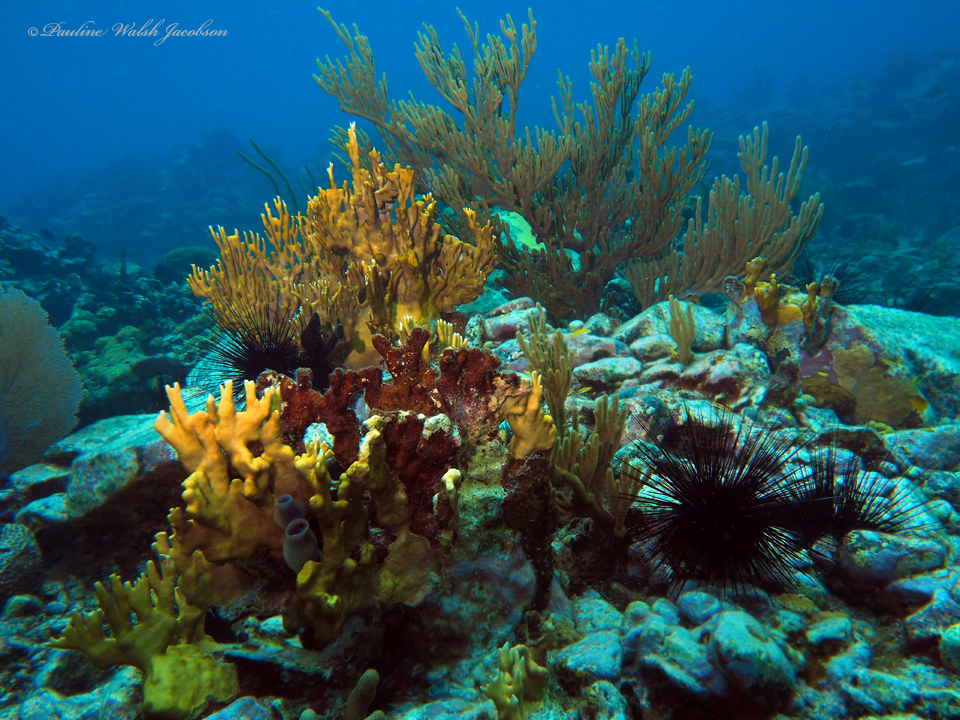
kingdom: Animalia
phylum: Echinodermata
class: Echinoidea
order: Diadematoida
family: Diadematidae
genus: Diadema
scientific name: Diadema antillarum
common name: Spiny urchin
